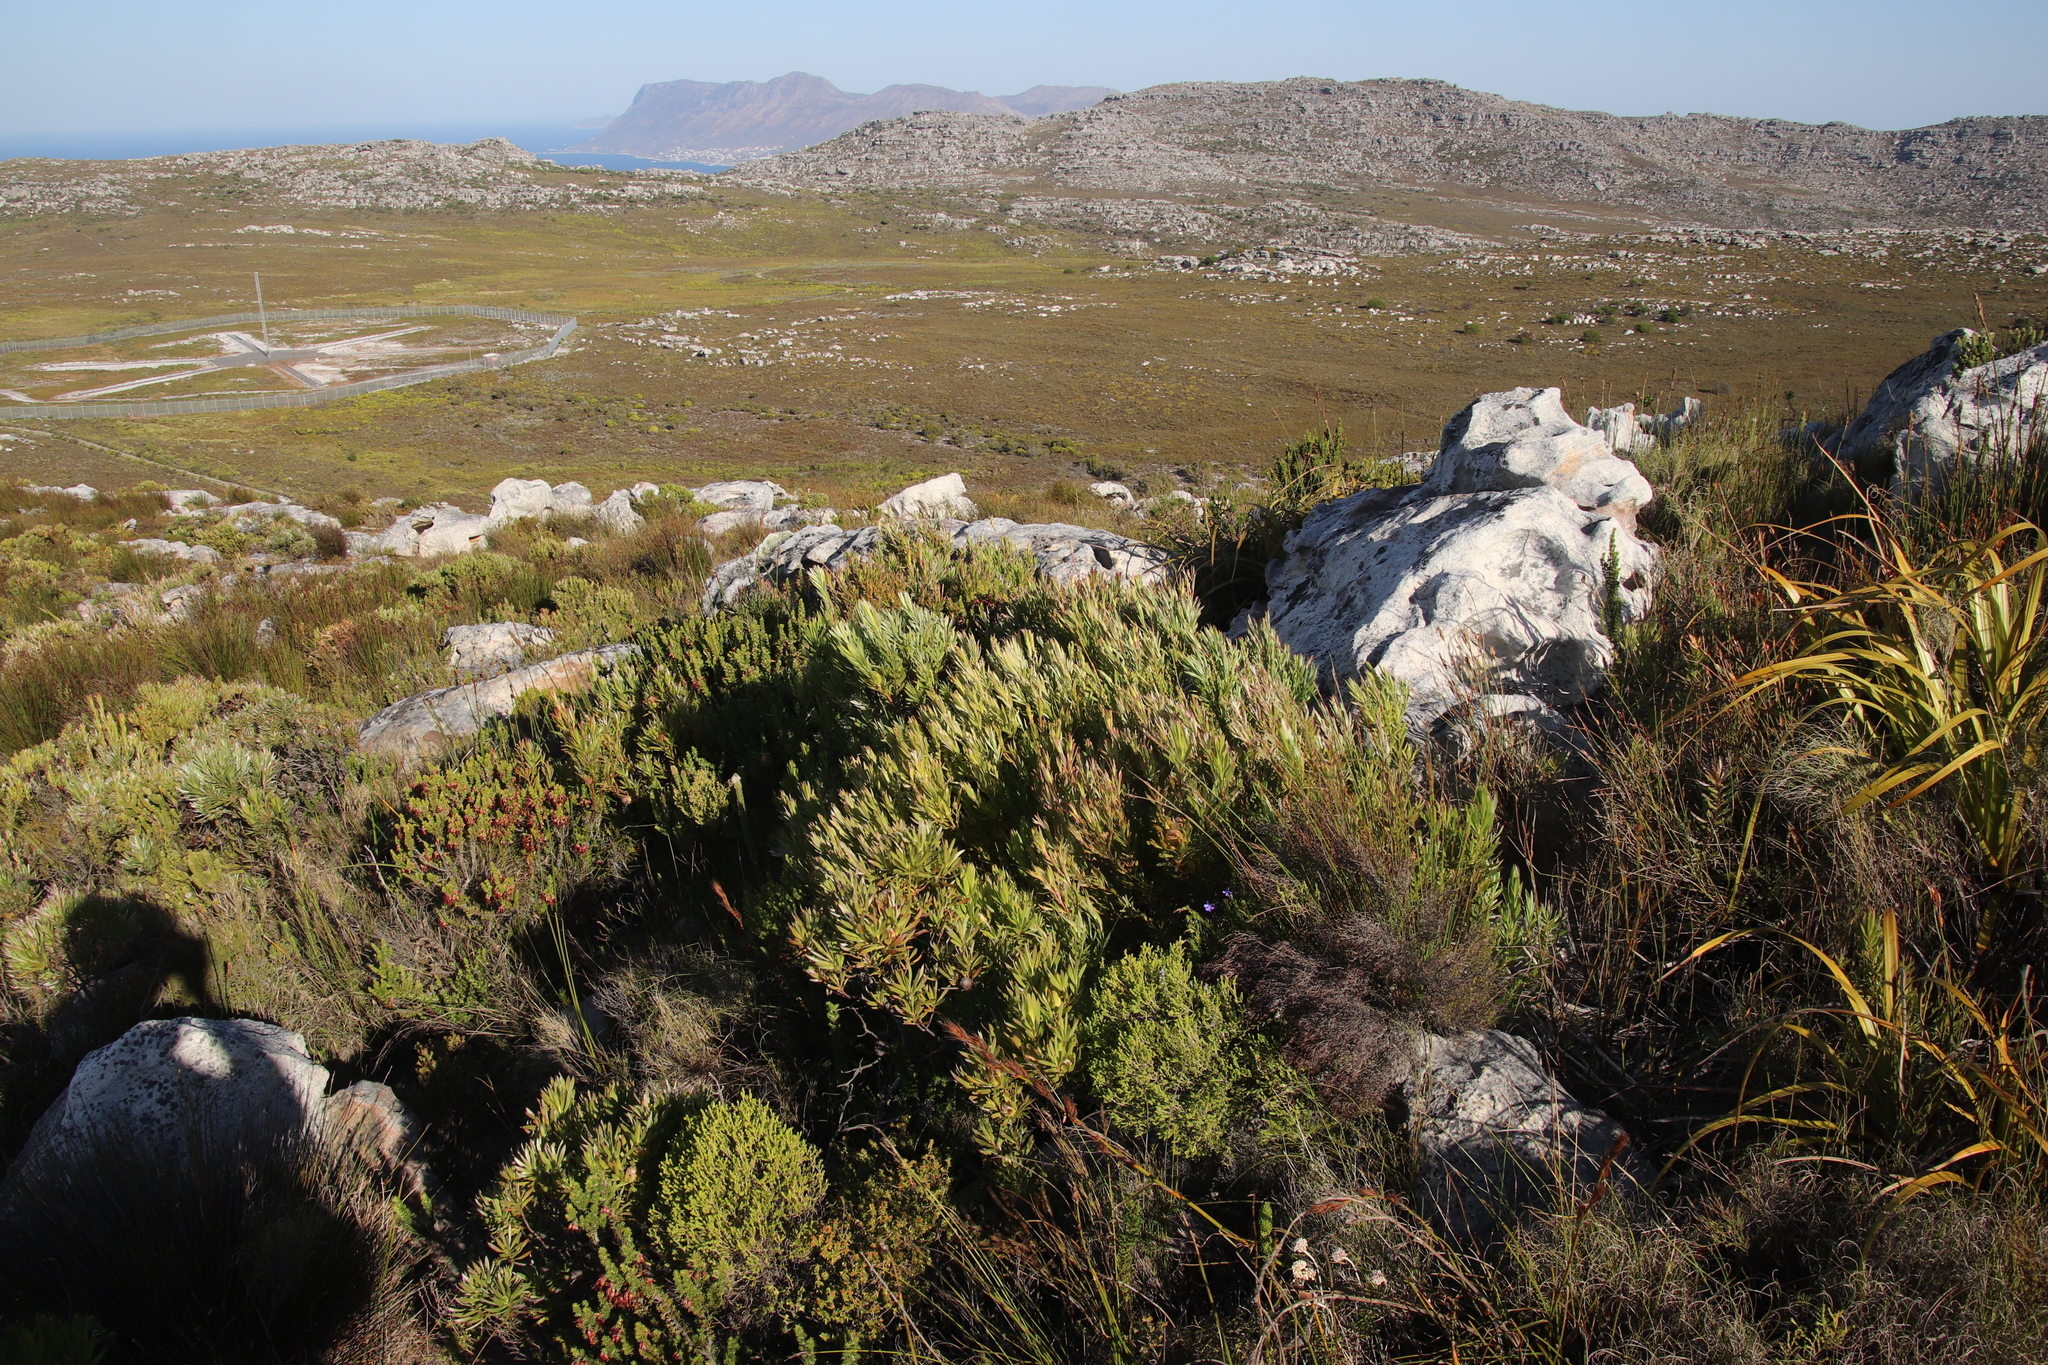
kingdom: Plantae
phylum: Tracheophyta
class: Magnoliopsida
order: Proteales
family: Proteaceae
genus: Leucadendron
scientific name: Leucadendron xanthoconus
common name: Sickle-leaf conebush
